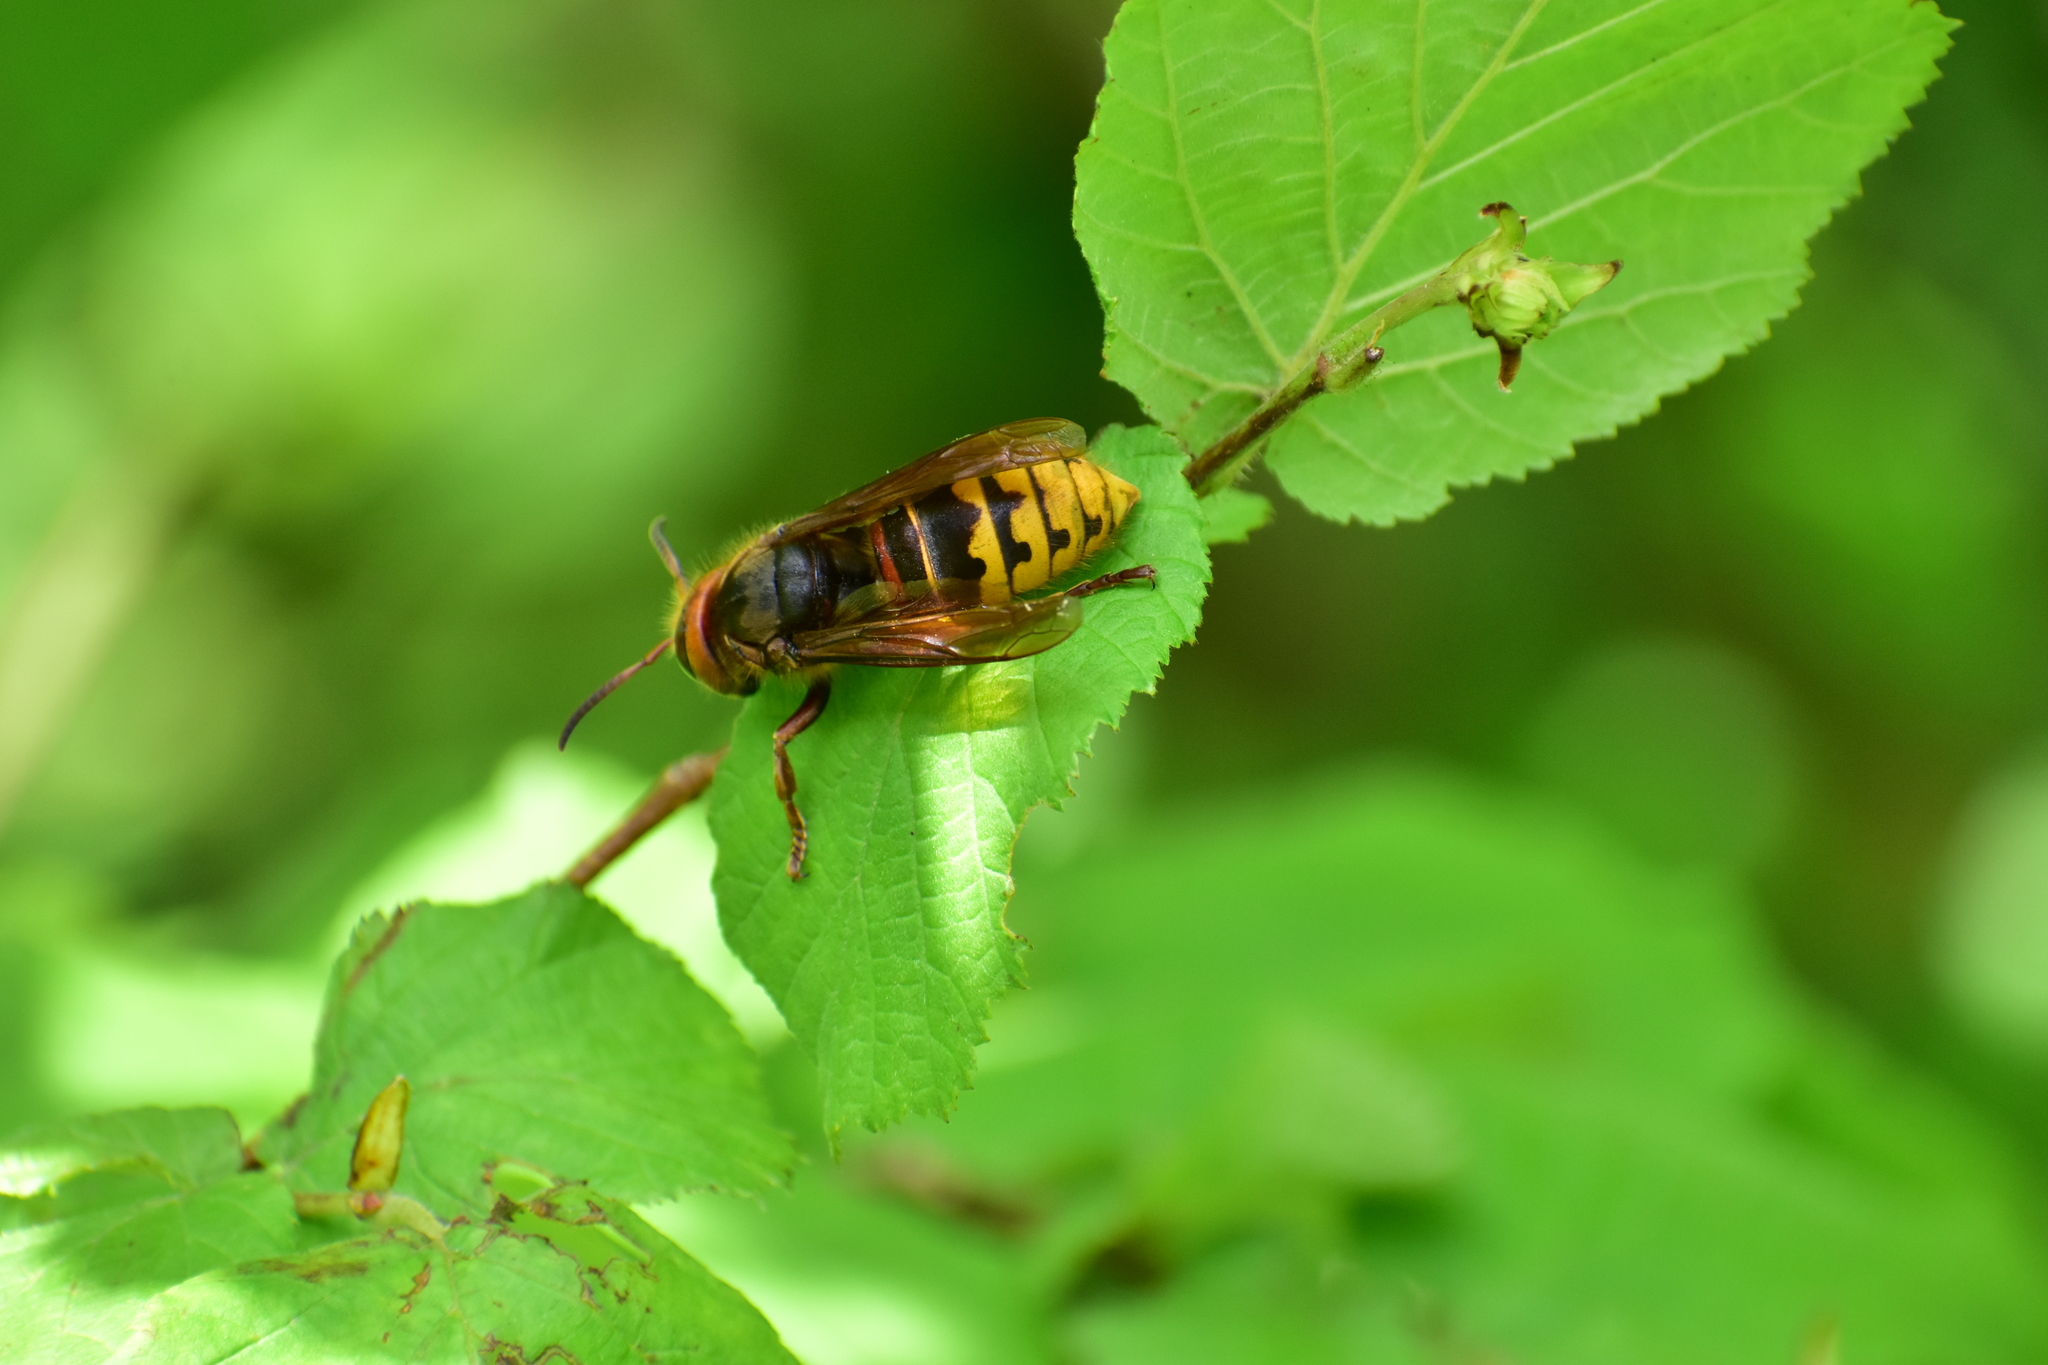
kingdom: Animalia
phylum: Arthropoda
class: Insecta
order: Hymenoptera
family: Vespidae
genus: Vespa
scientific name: Vespa crabro
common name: Hornet
